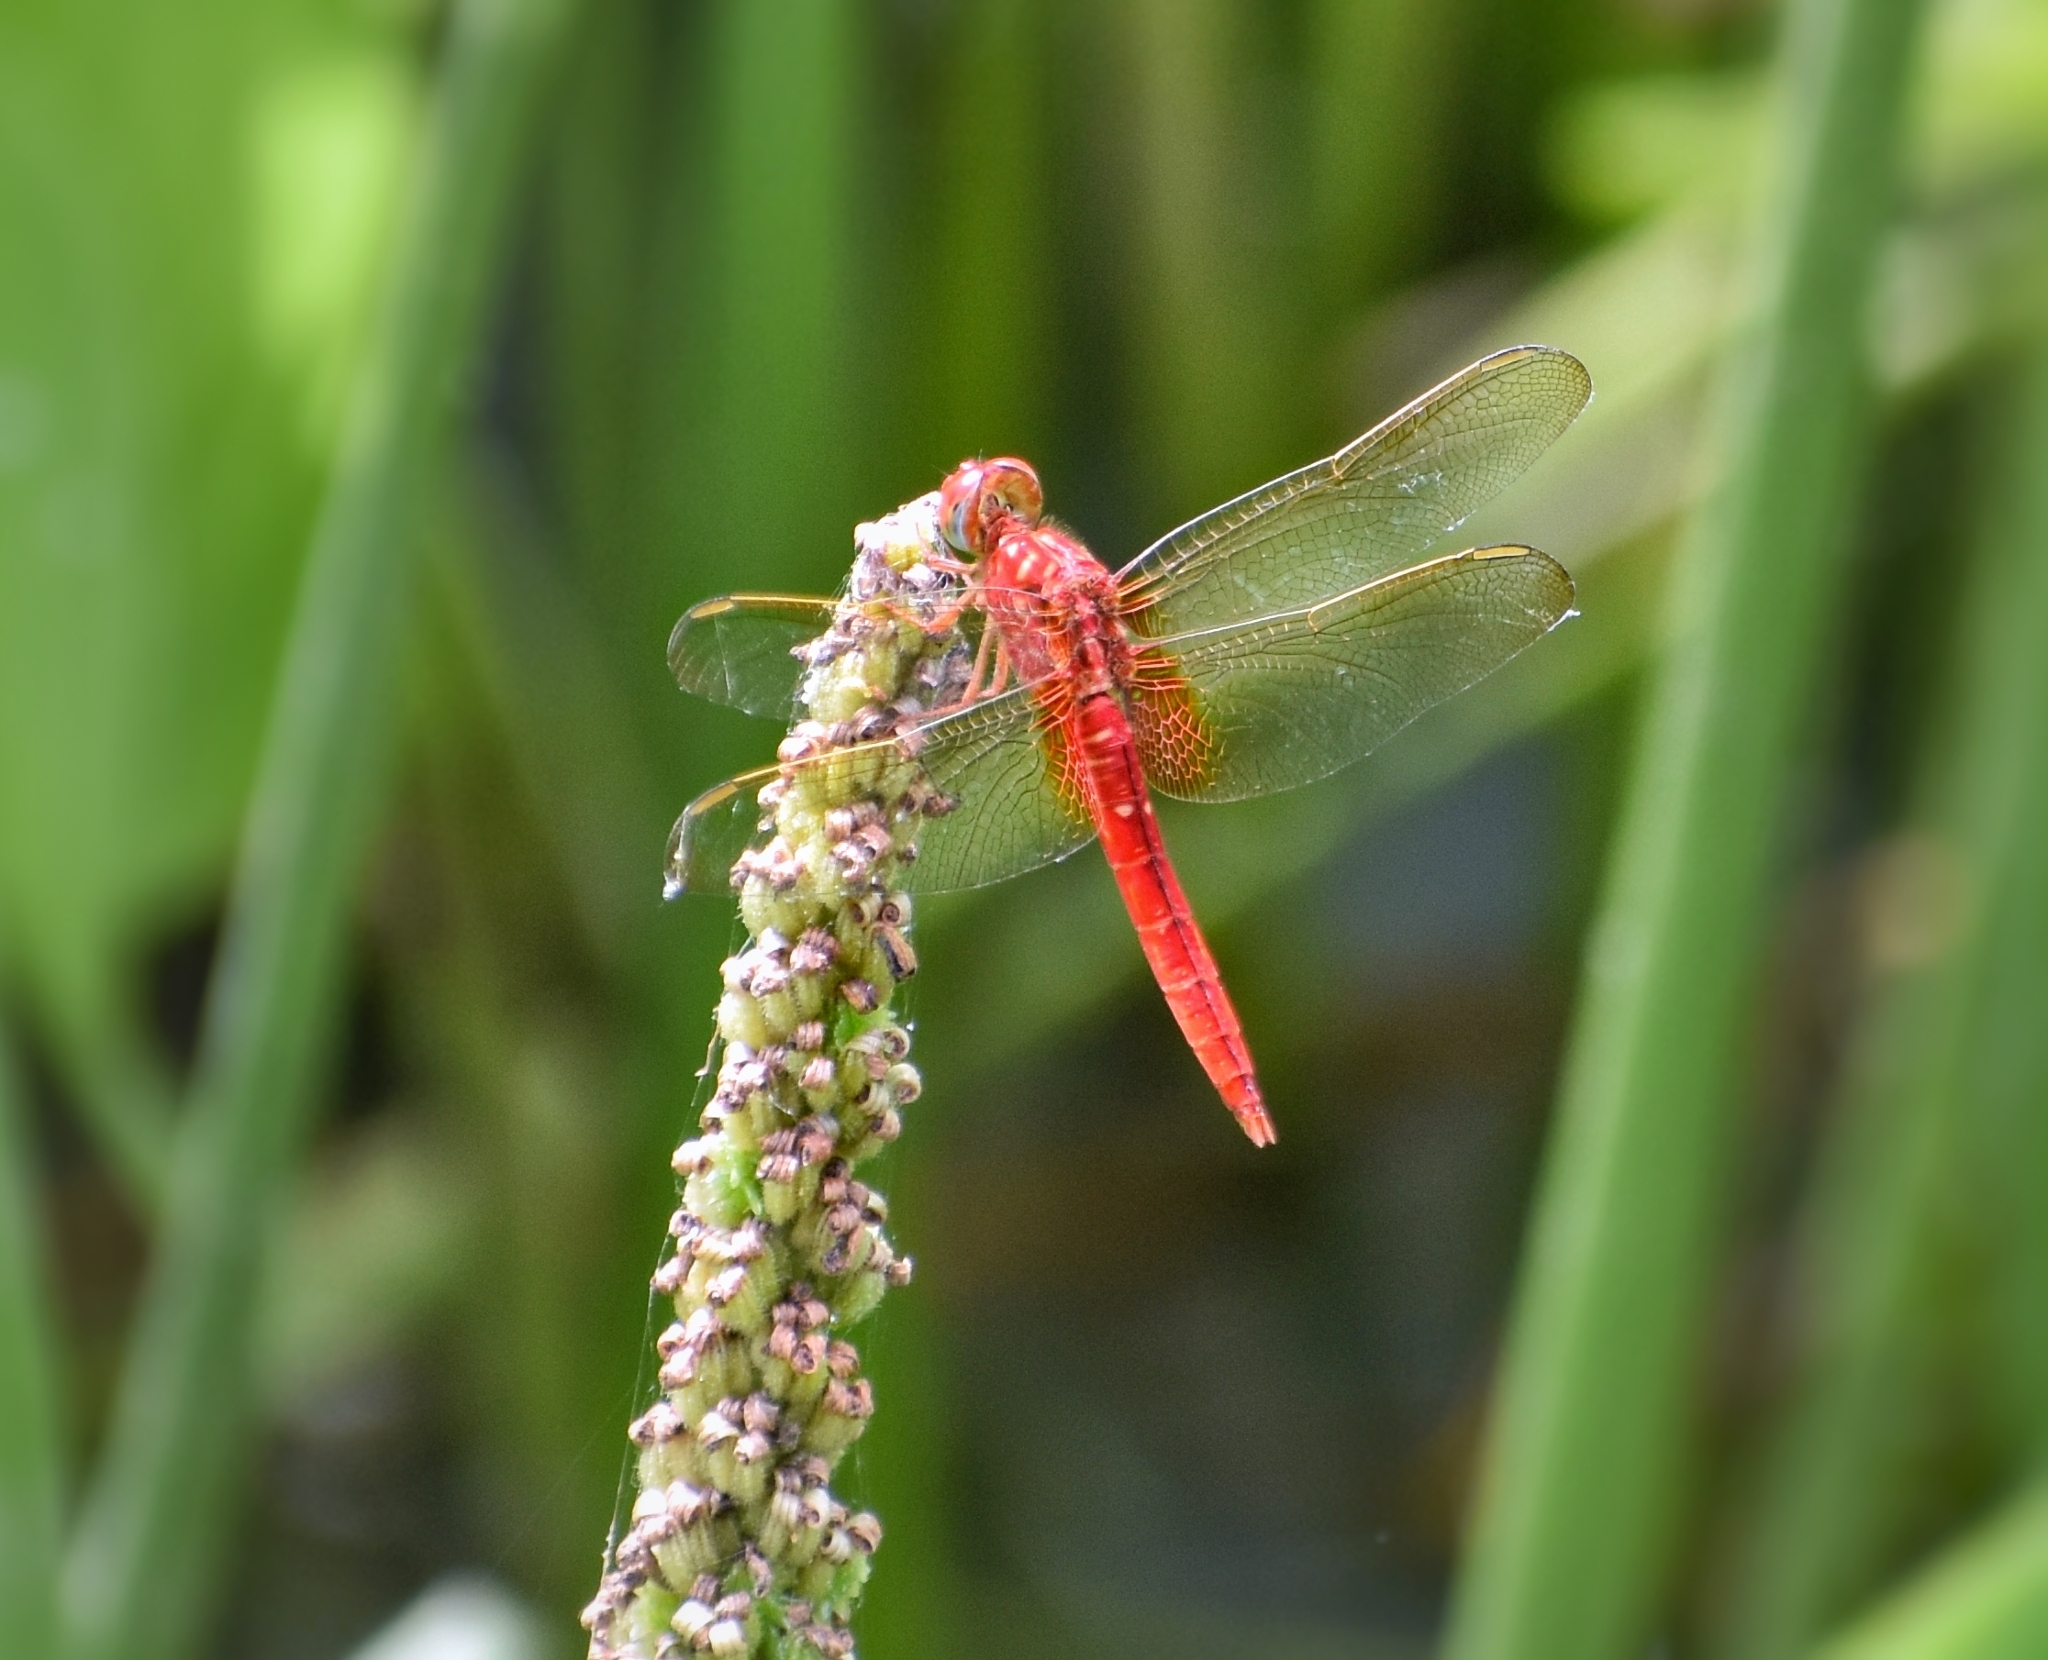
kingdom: Animalia
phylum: Arthropoda
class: Insecta
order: Odonata
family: Libellulidae
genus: Crocothemis
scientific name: Crocothemis servilia
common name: Scarlet skimmer
